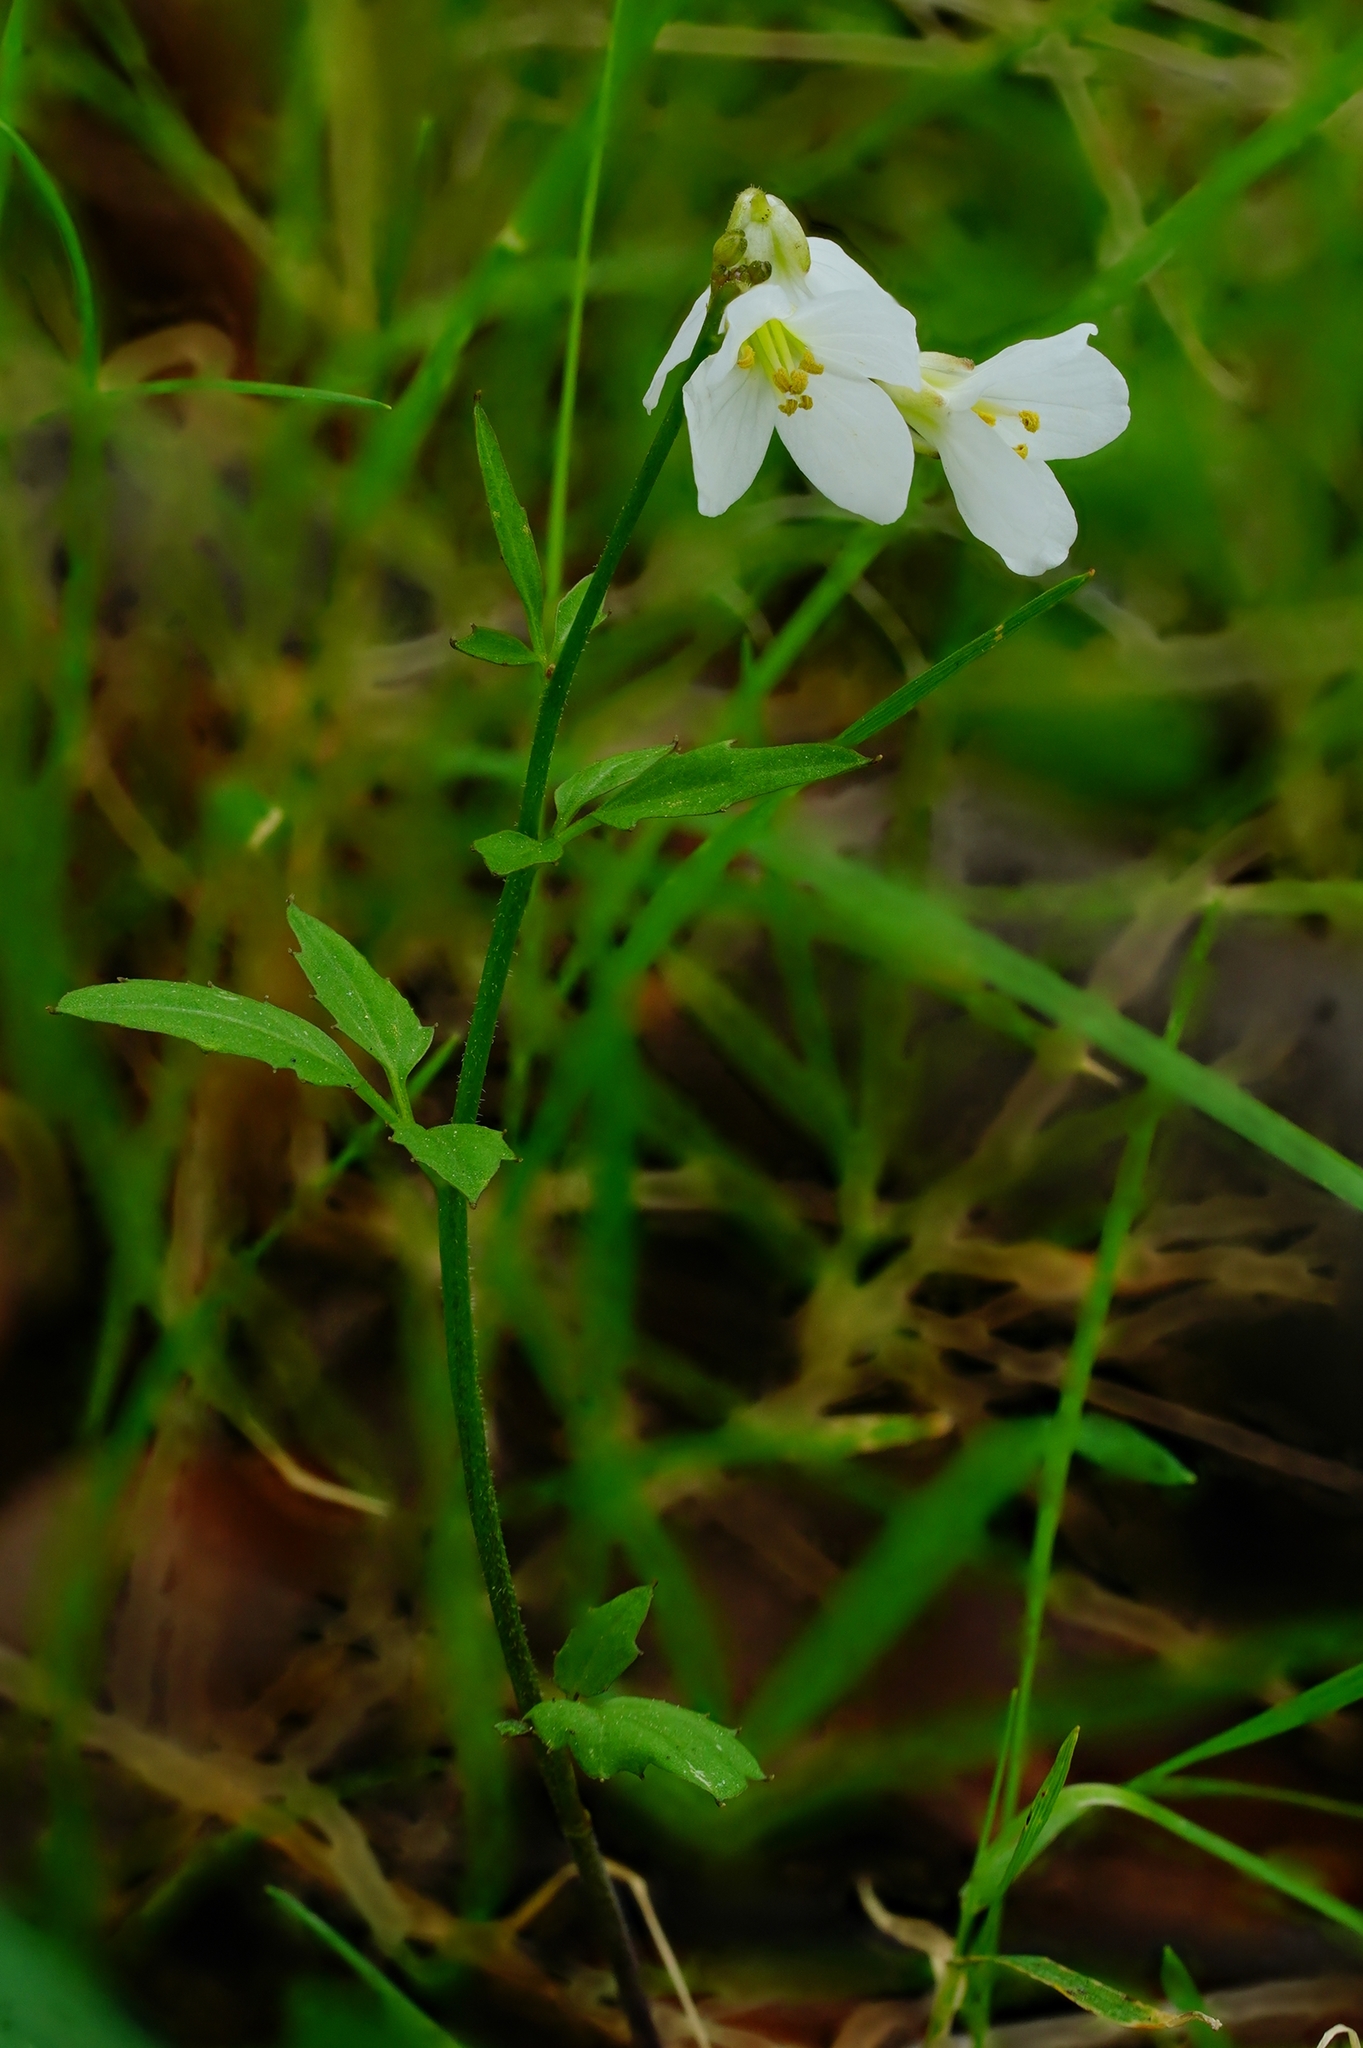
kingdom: Plantae
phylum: Tracheophyta
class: Magnoliopsida
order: Brassicales
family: Brassicaceae
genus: Cardamine
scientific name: Cardamine californica
